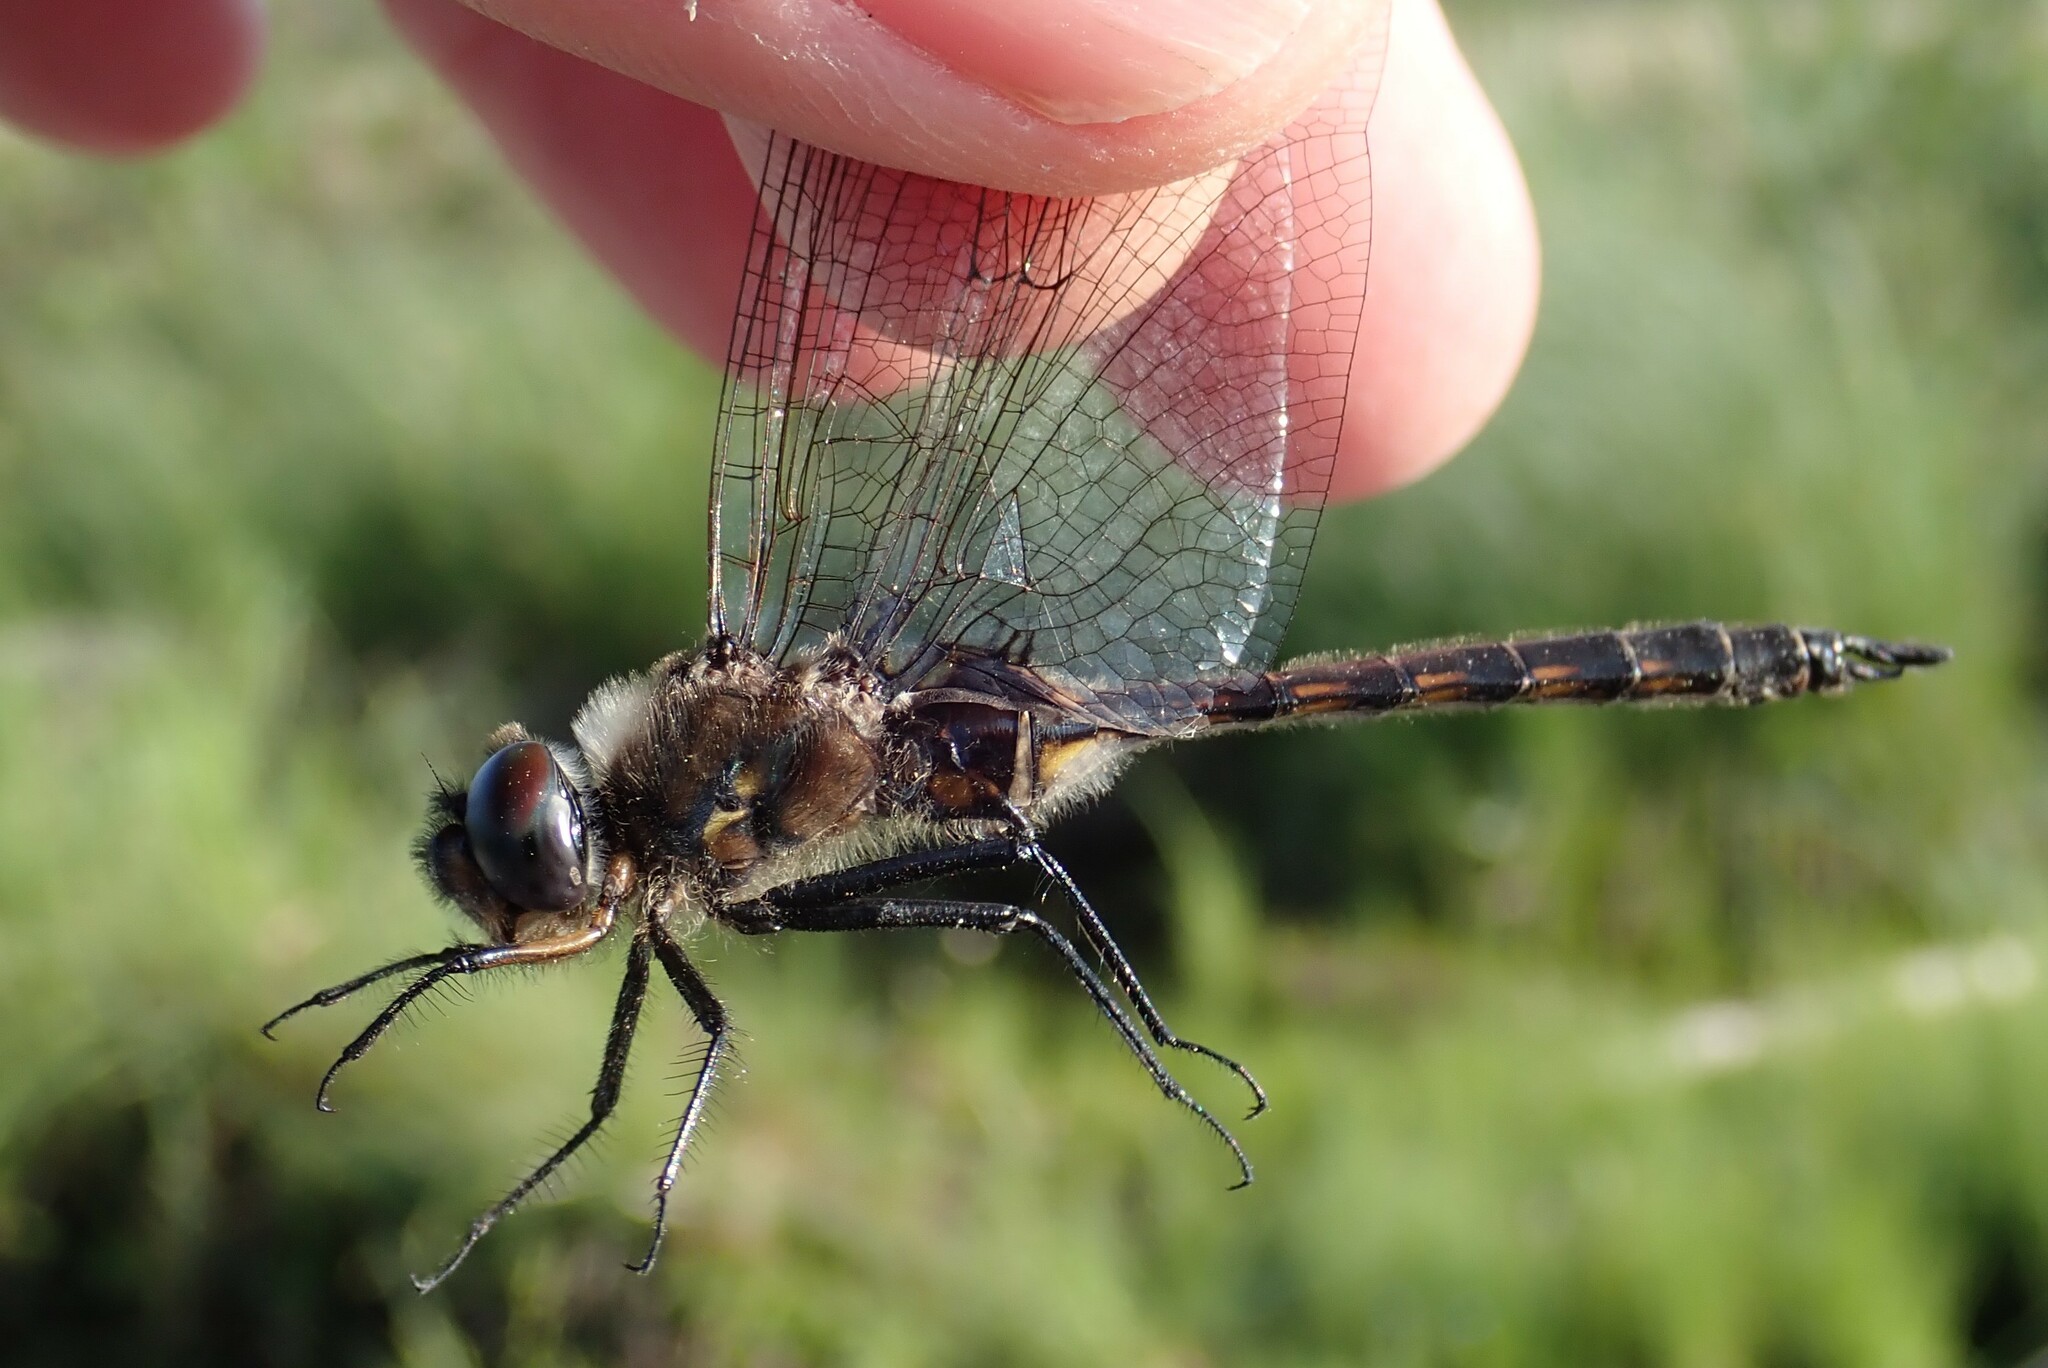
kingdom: Animalia
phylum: Arthropoda
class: Insecta
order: Odonata
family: Corduliidae
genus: Epitheca
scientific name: Epitheca spinigera
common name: Spiny baskettail
